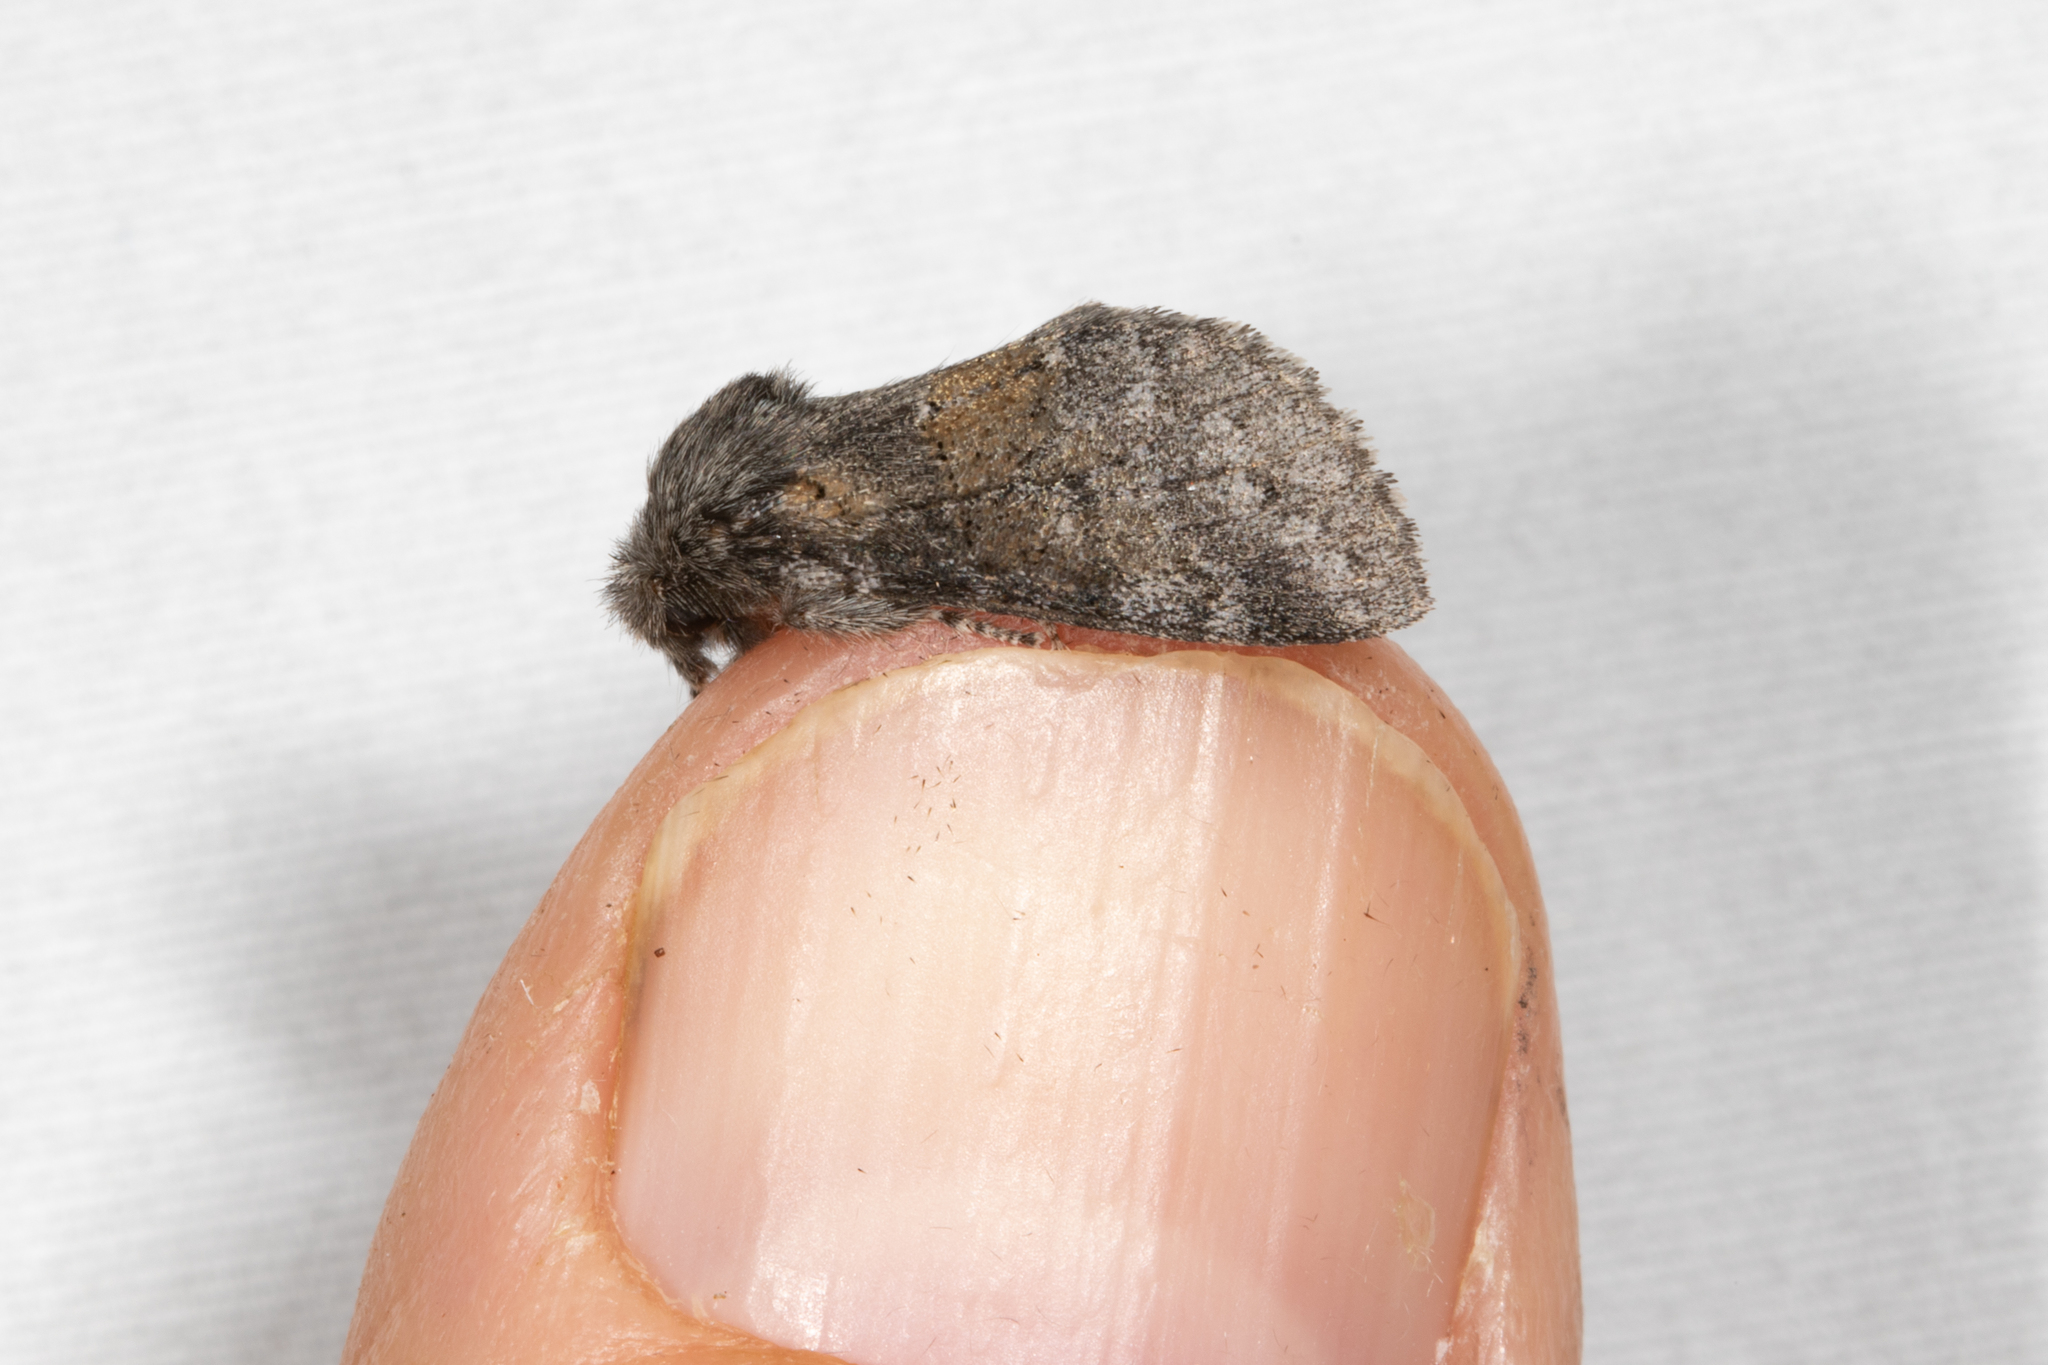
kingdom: Animalia
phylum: Arthropoda
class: Insecta
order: Lepidoptera
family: Notodontidae
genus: Gluphisia
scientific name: Gluphisia septentrionis
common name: Common gluphisia
